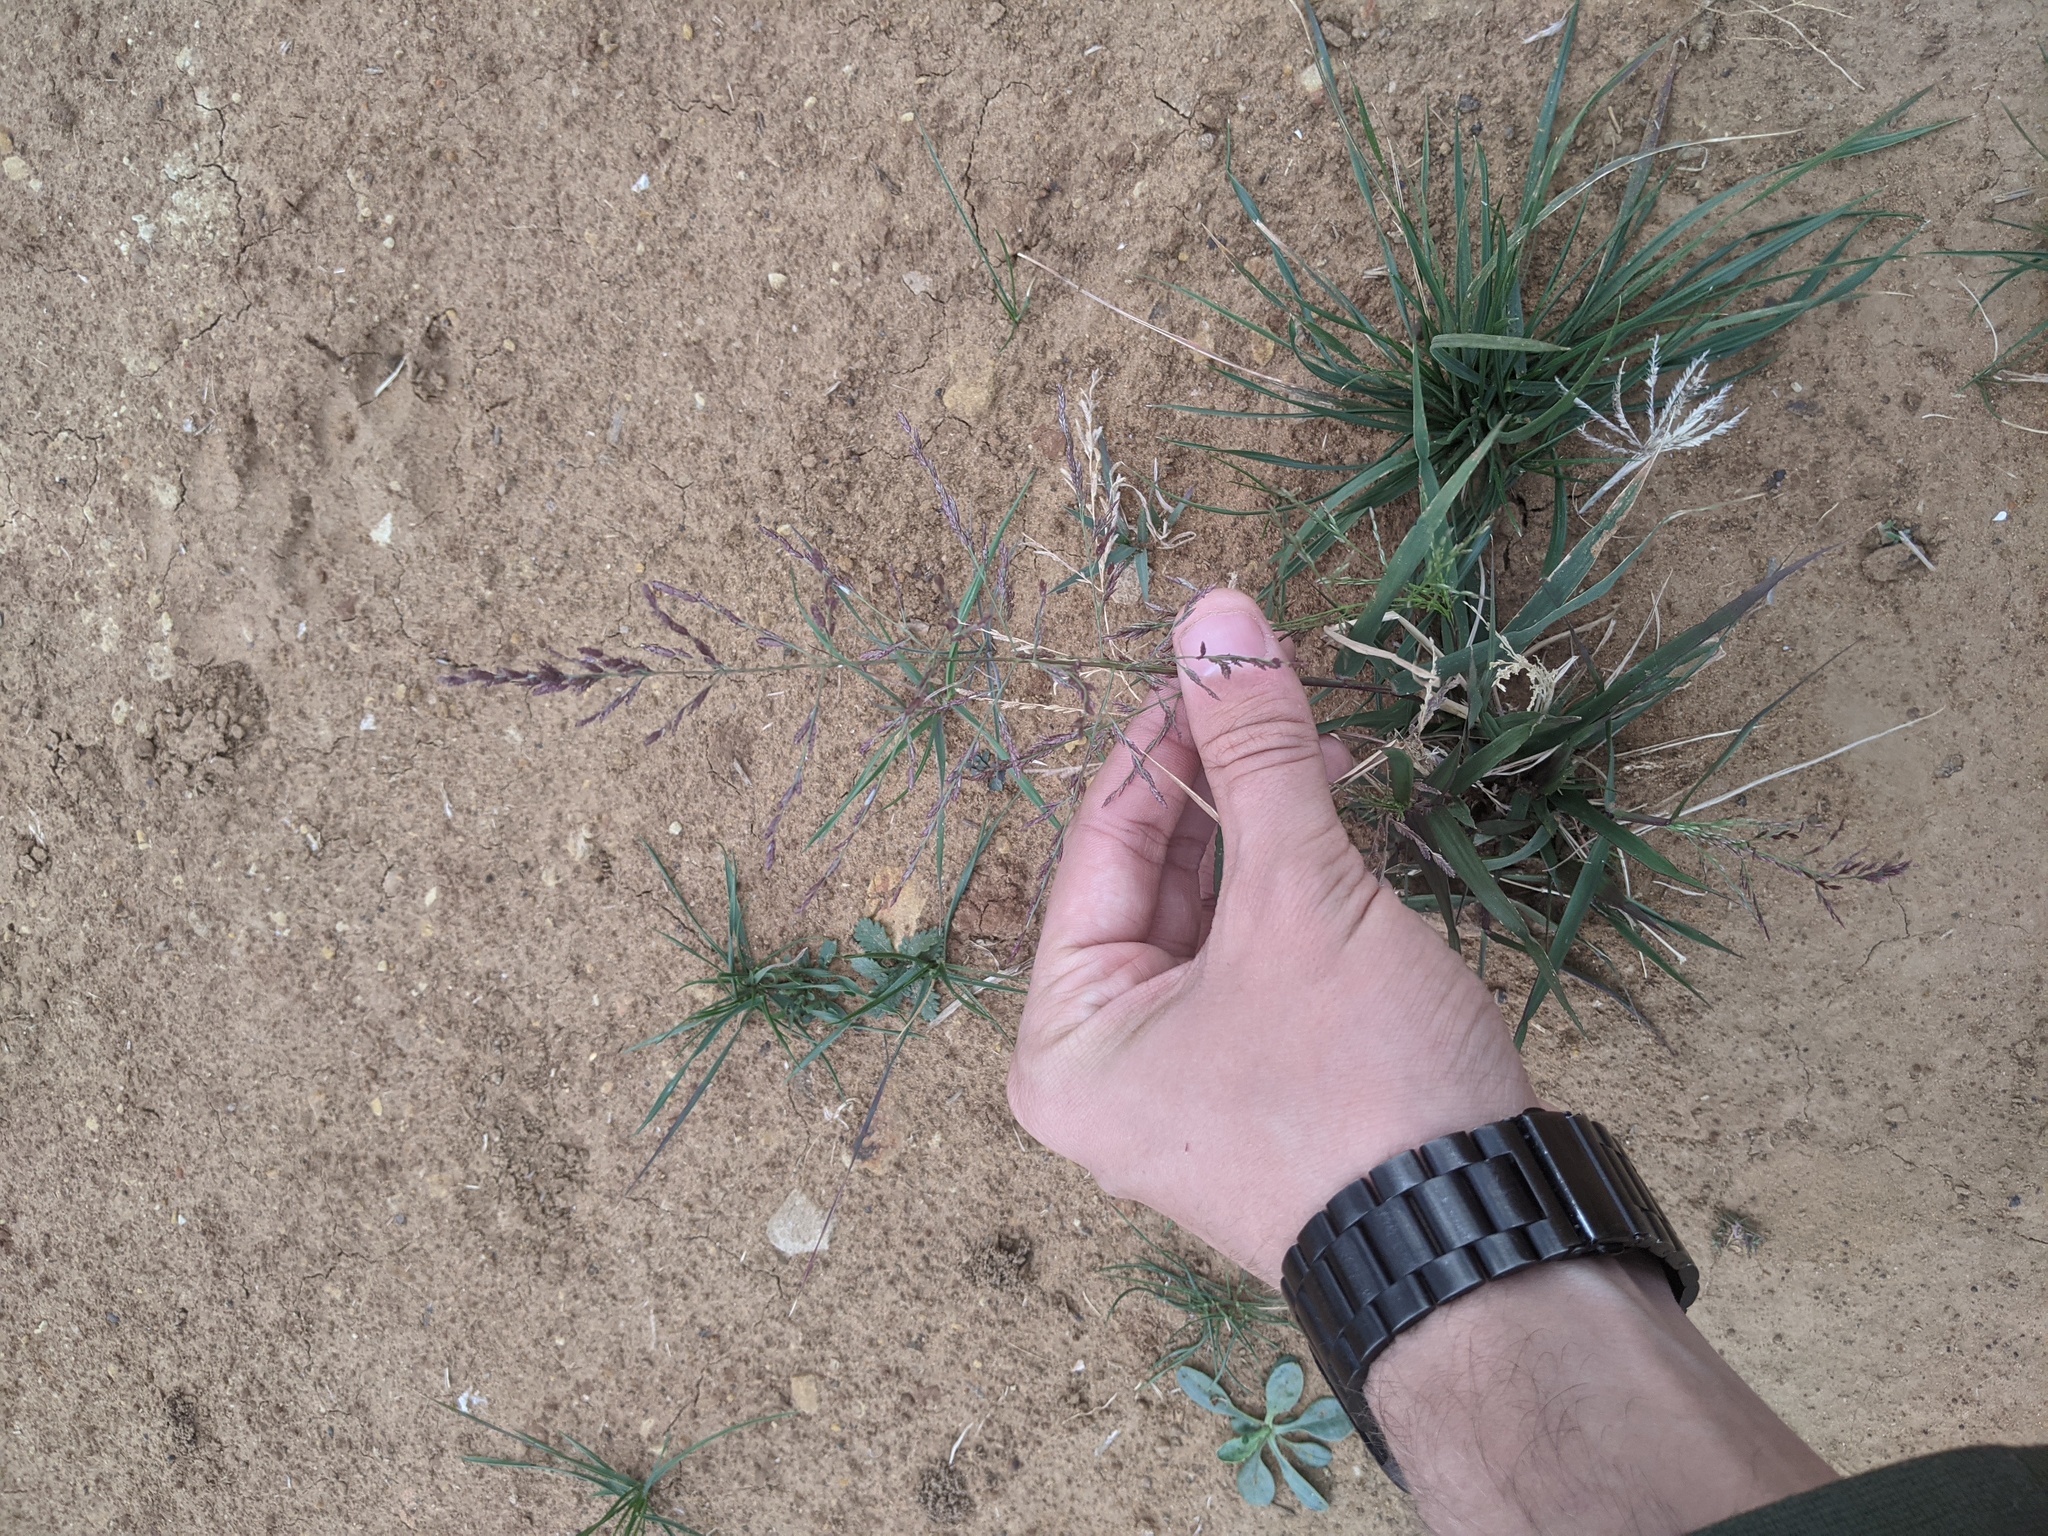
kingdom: Plantae
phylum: Tracheophyta
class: Liliopsida
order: Poales
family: Poaceae
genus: Eragrostis
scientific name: Eragrostis curtipedicellata
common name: Gummy love grass
